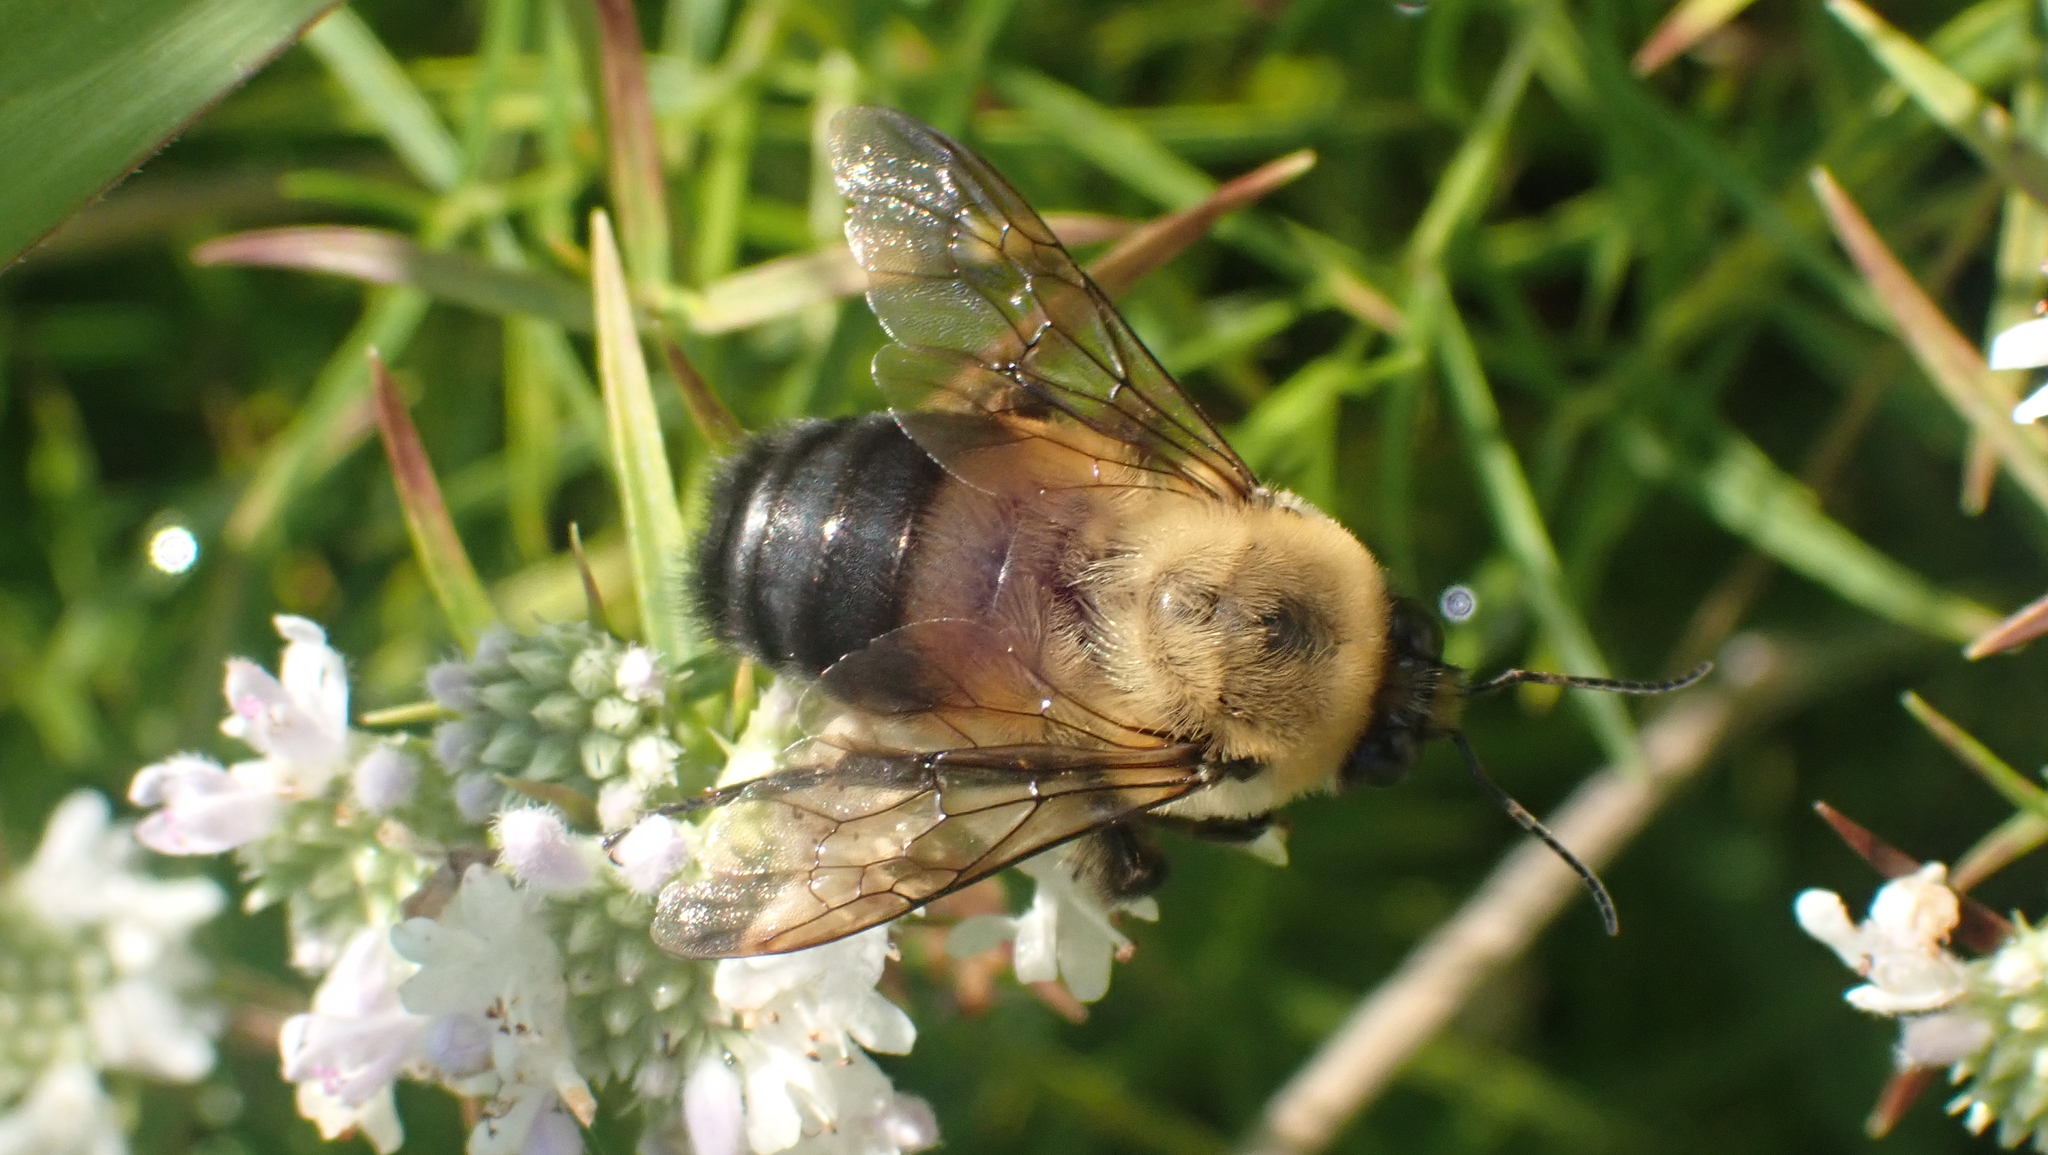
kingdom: Animalia
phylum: Arthropoda
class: Insecta
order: Hymenoptera
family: Apidae
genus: Bombus
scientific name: Bombus griseocollis
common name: Brown-belted bumble bee
